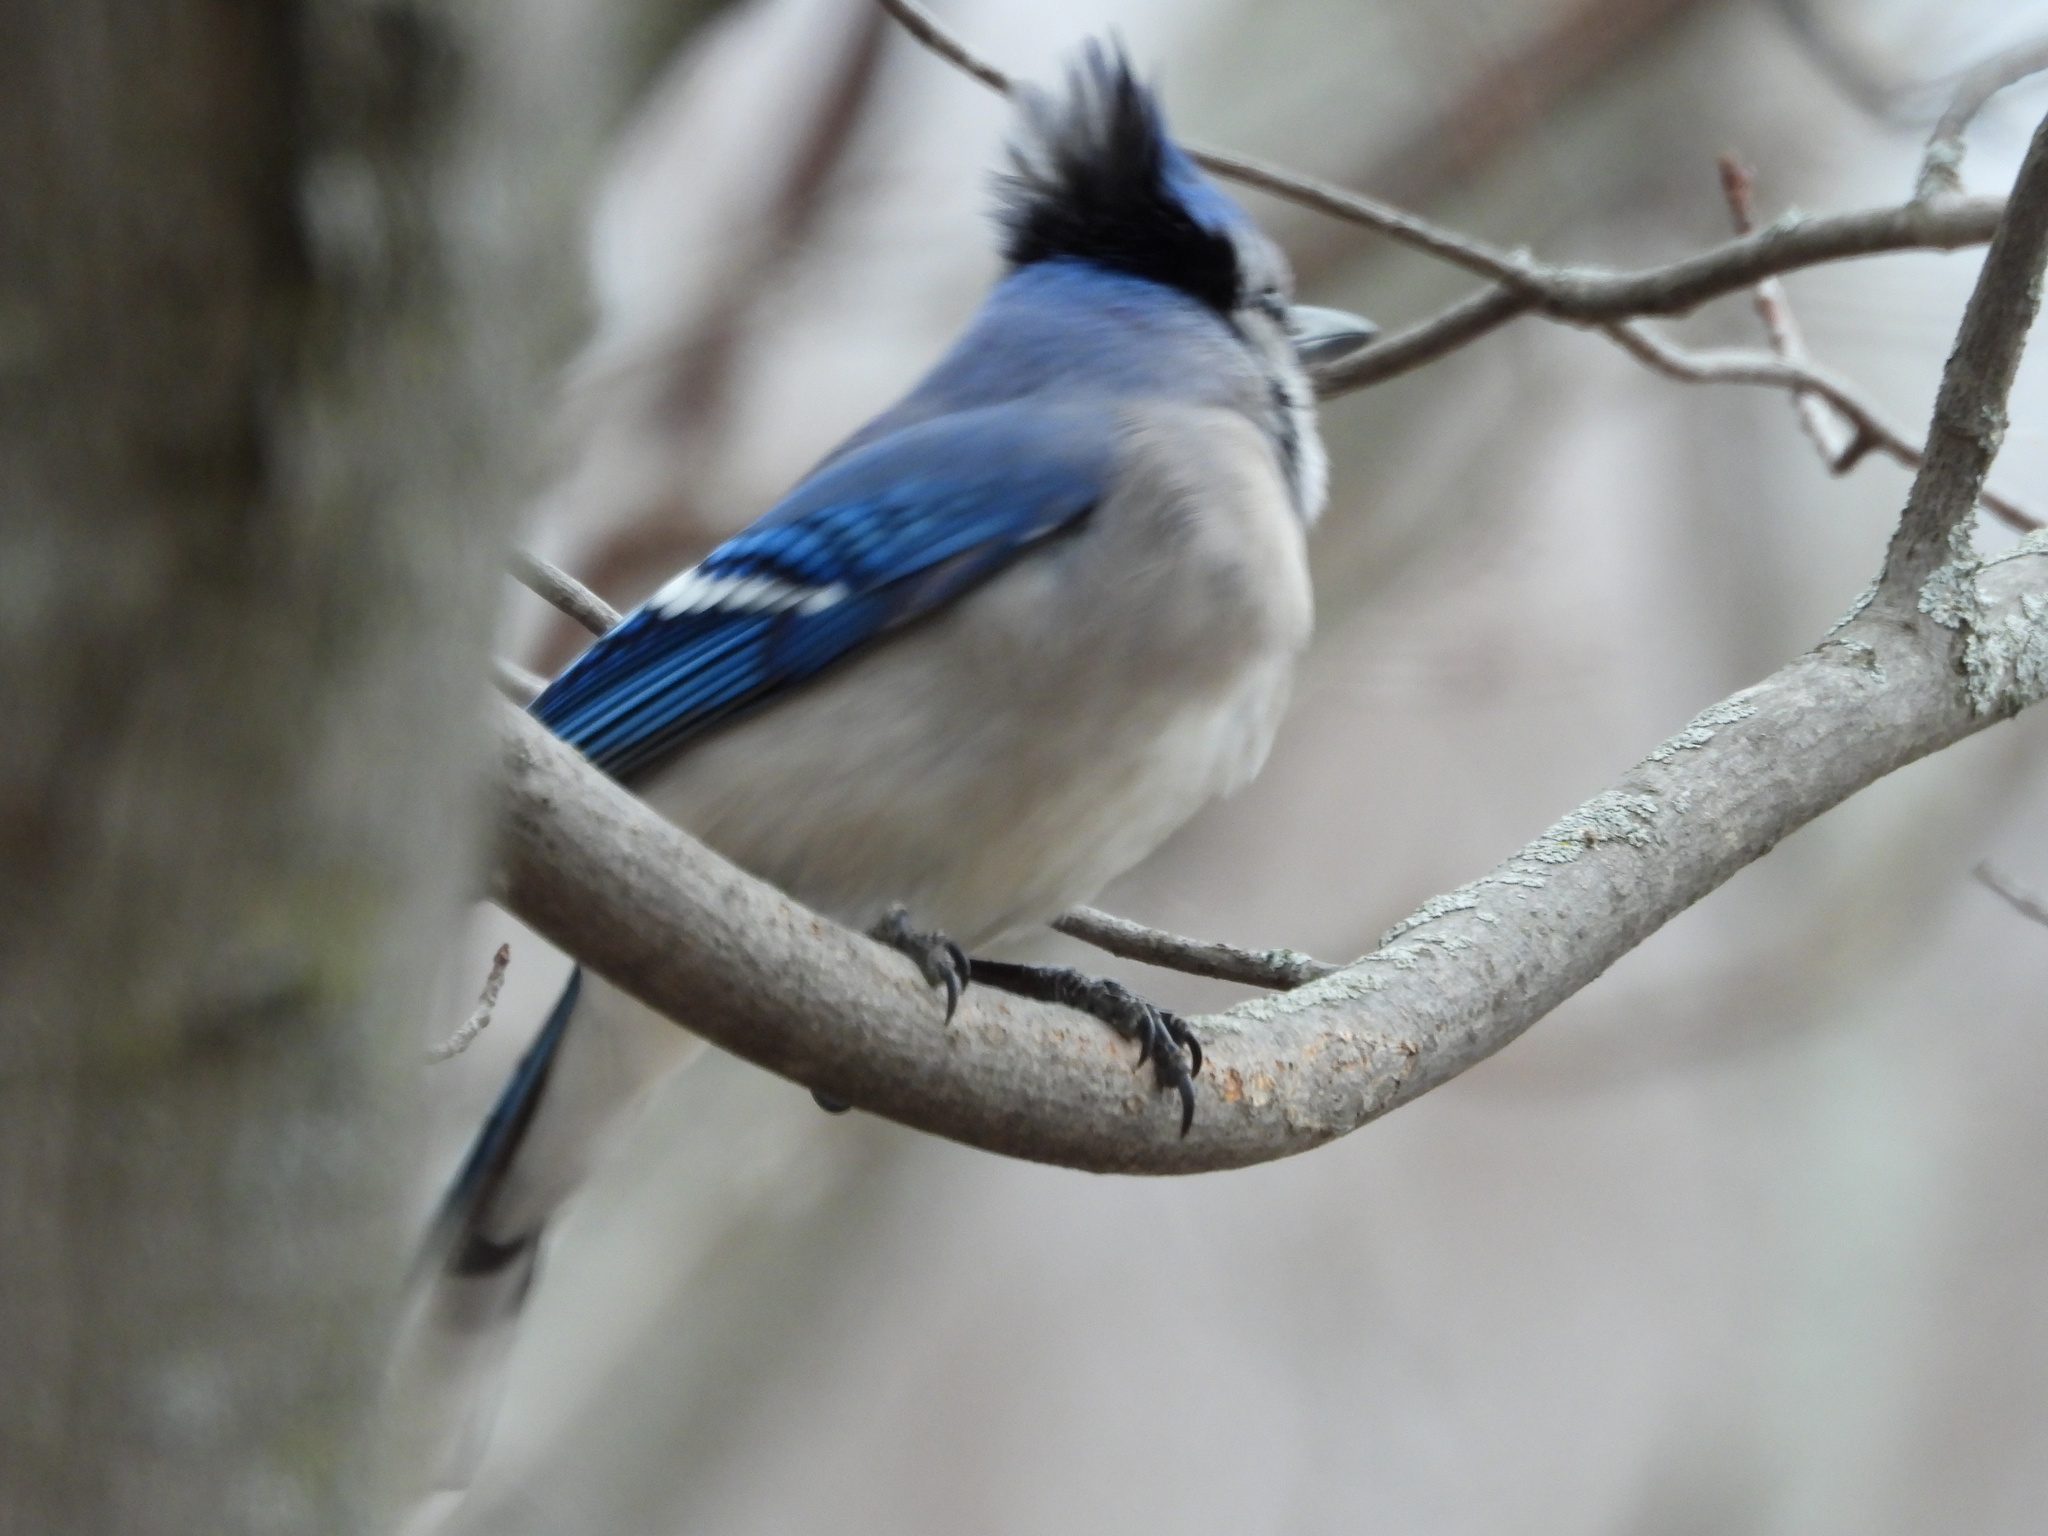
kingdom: Animalia
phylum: Chordata
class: Aves
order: Passeriformes
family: Corvidae
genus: Cyanocitta
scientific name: Cyanocitta cristata
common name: Blue jay
